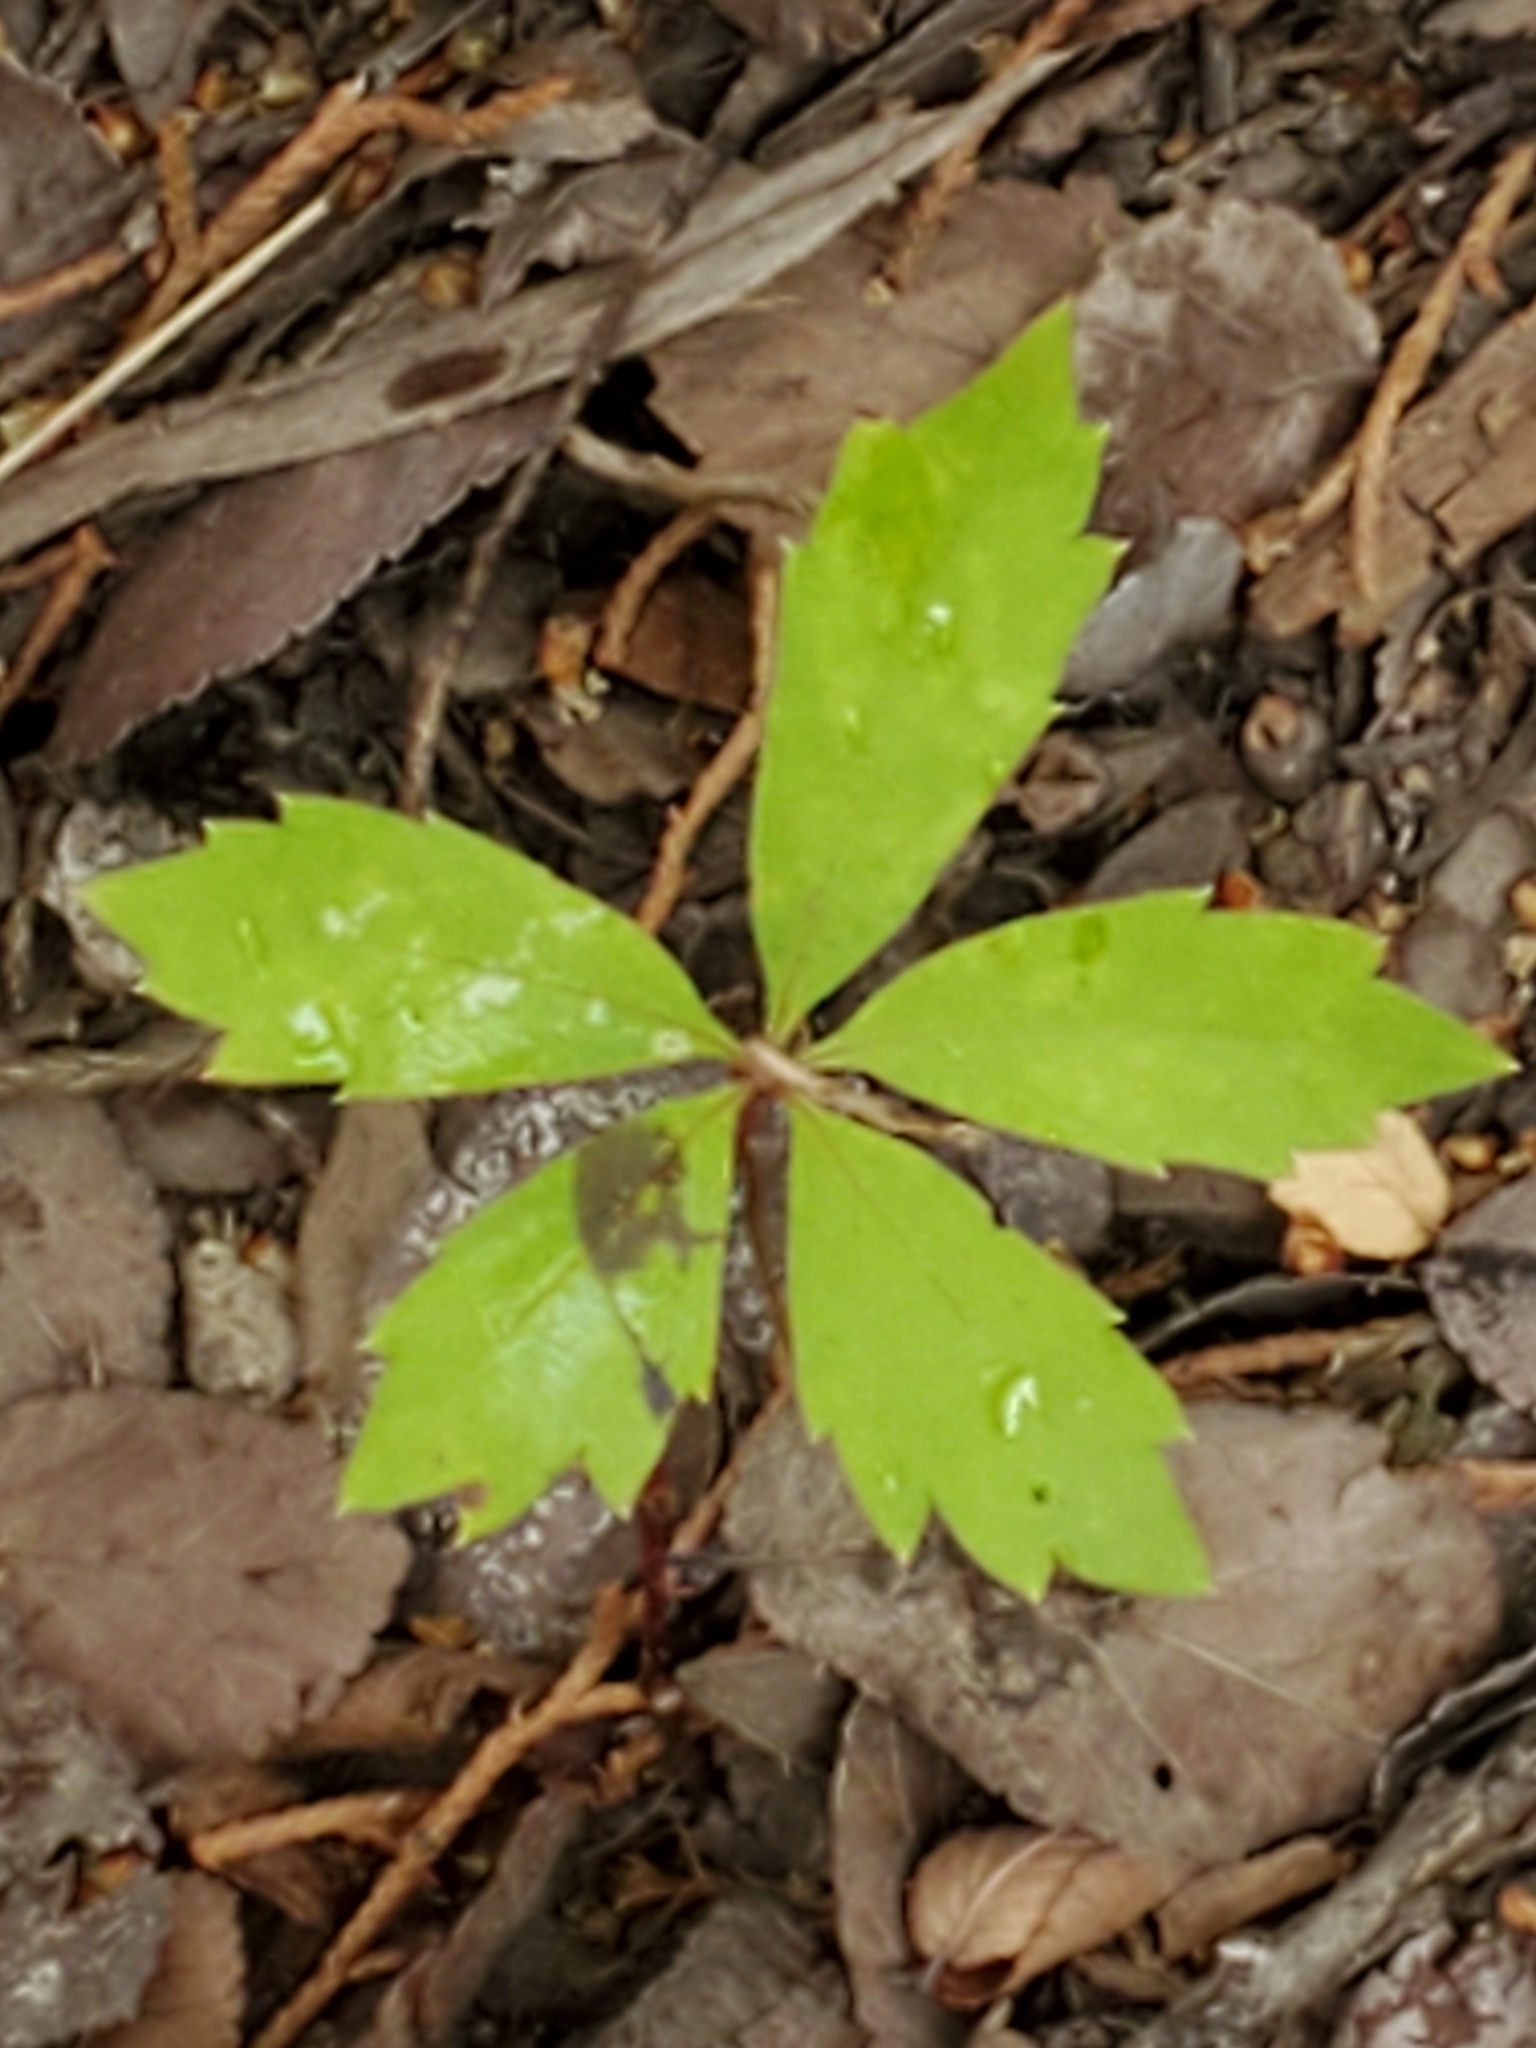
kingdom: Plantae
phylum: Tracheophyta
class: Magnoliopsida
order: Vitales
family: Vitaceae
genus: Parthenocissus
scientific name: Parthenocissus quinquefolia
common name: Virginia-creeper
